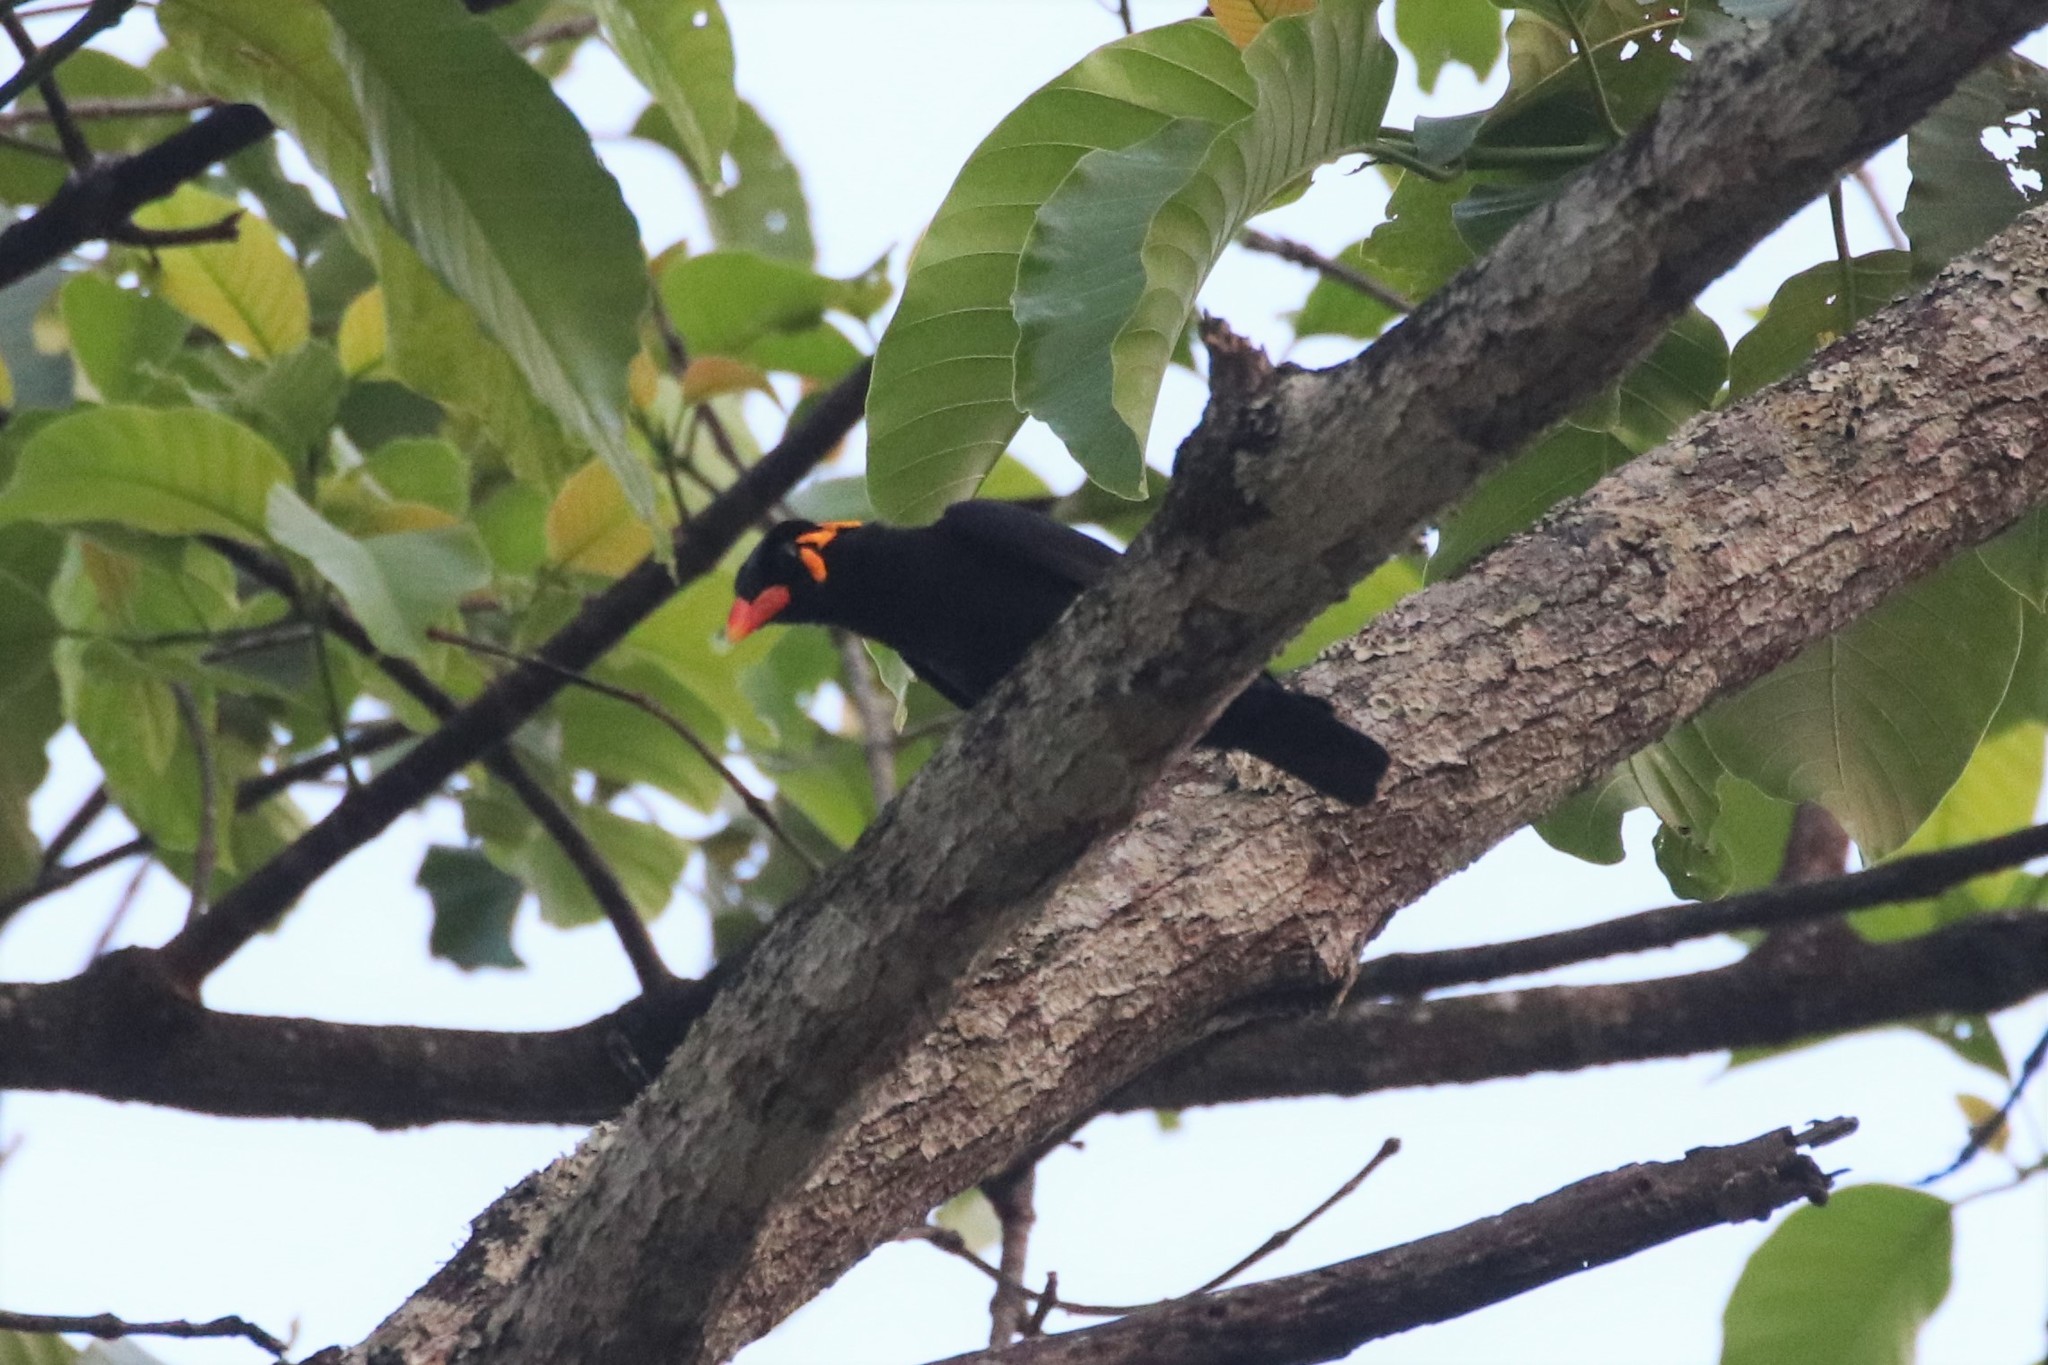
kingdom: Animalia
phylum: Chordata
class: Aves
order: Passeriformes
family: Sturnidae
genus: Gracula
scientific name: Gracula religiosa
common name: Common hill myna
